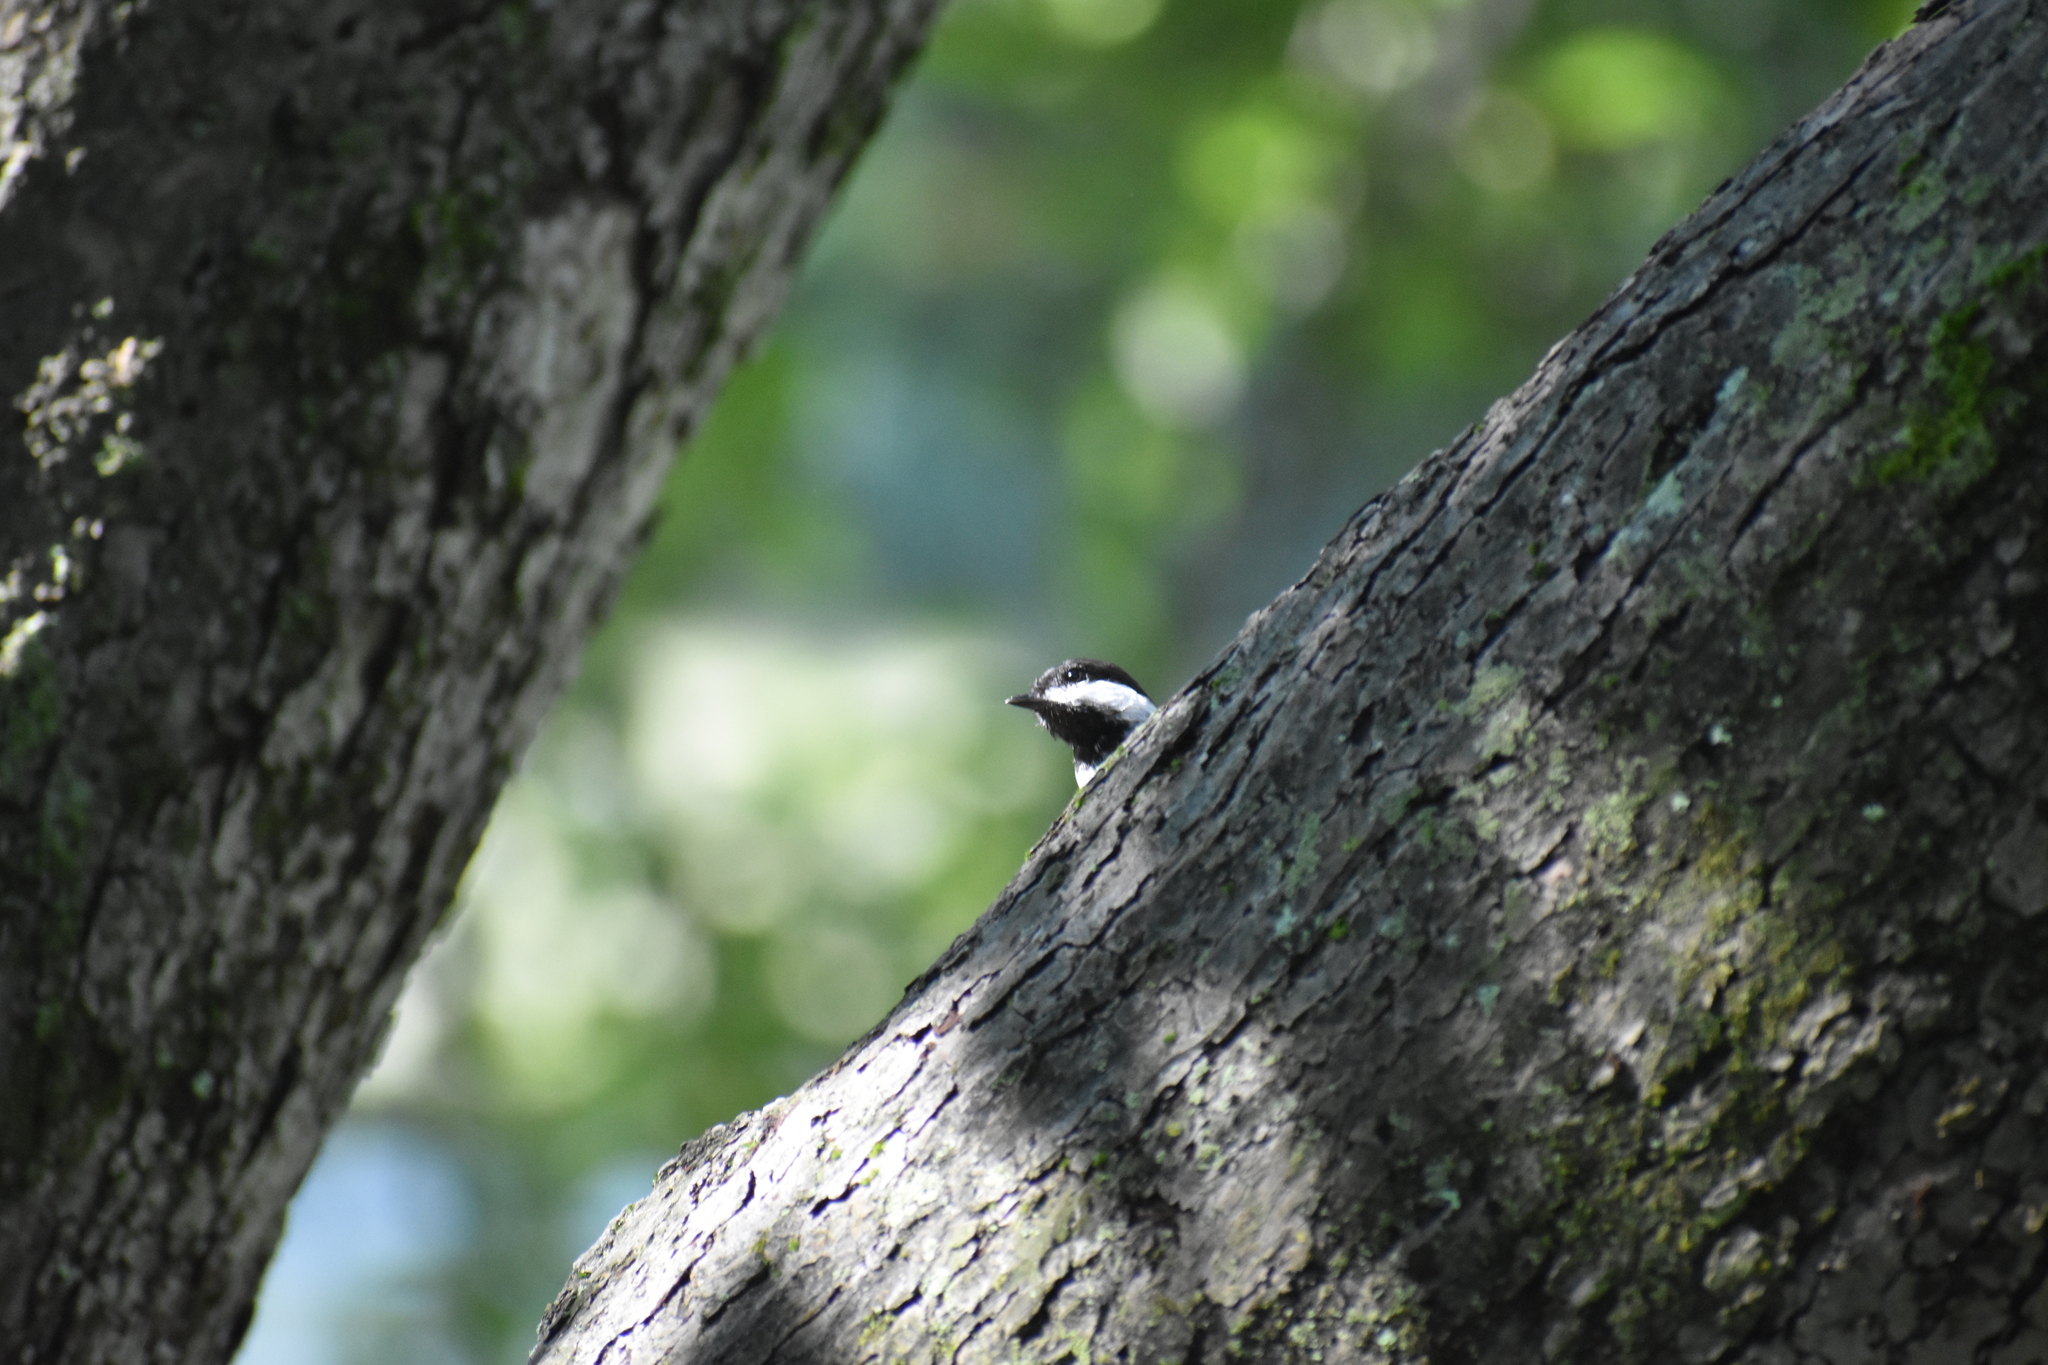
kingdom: Animalia
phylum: Chordata
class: Aves
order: Passeriformes
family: Paridae
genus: Poecile
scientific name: Poecile atricapillus
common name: Black-capped chickadee
